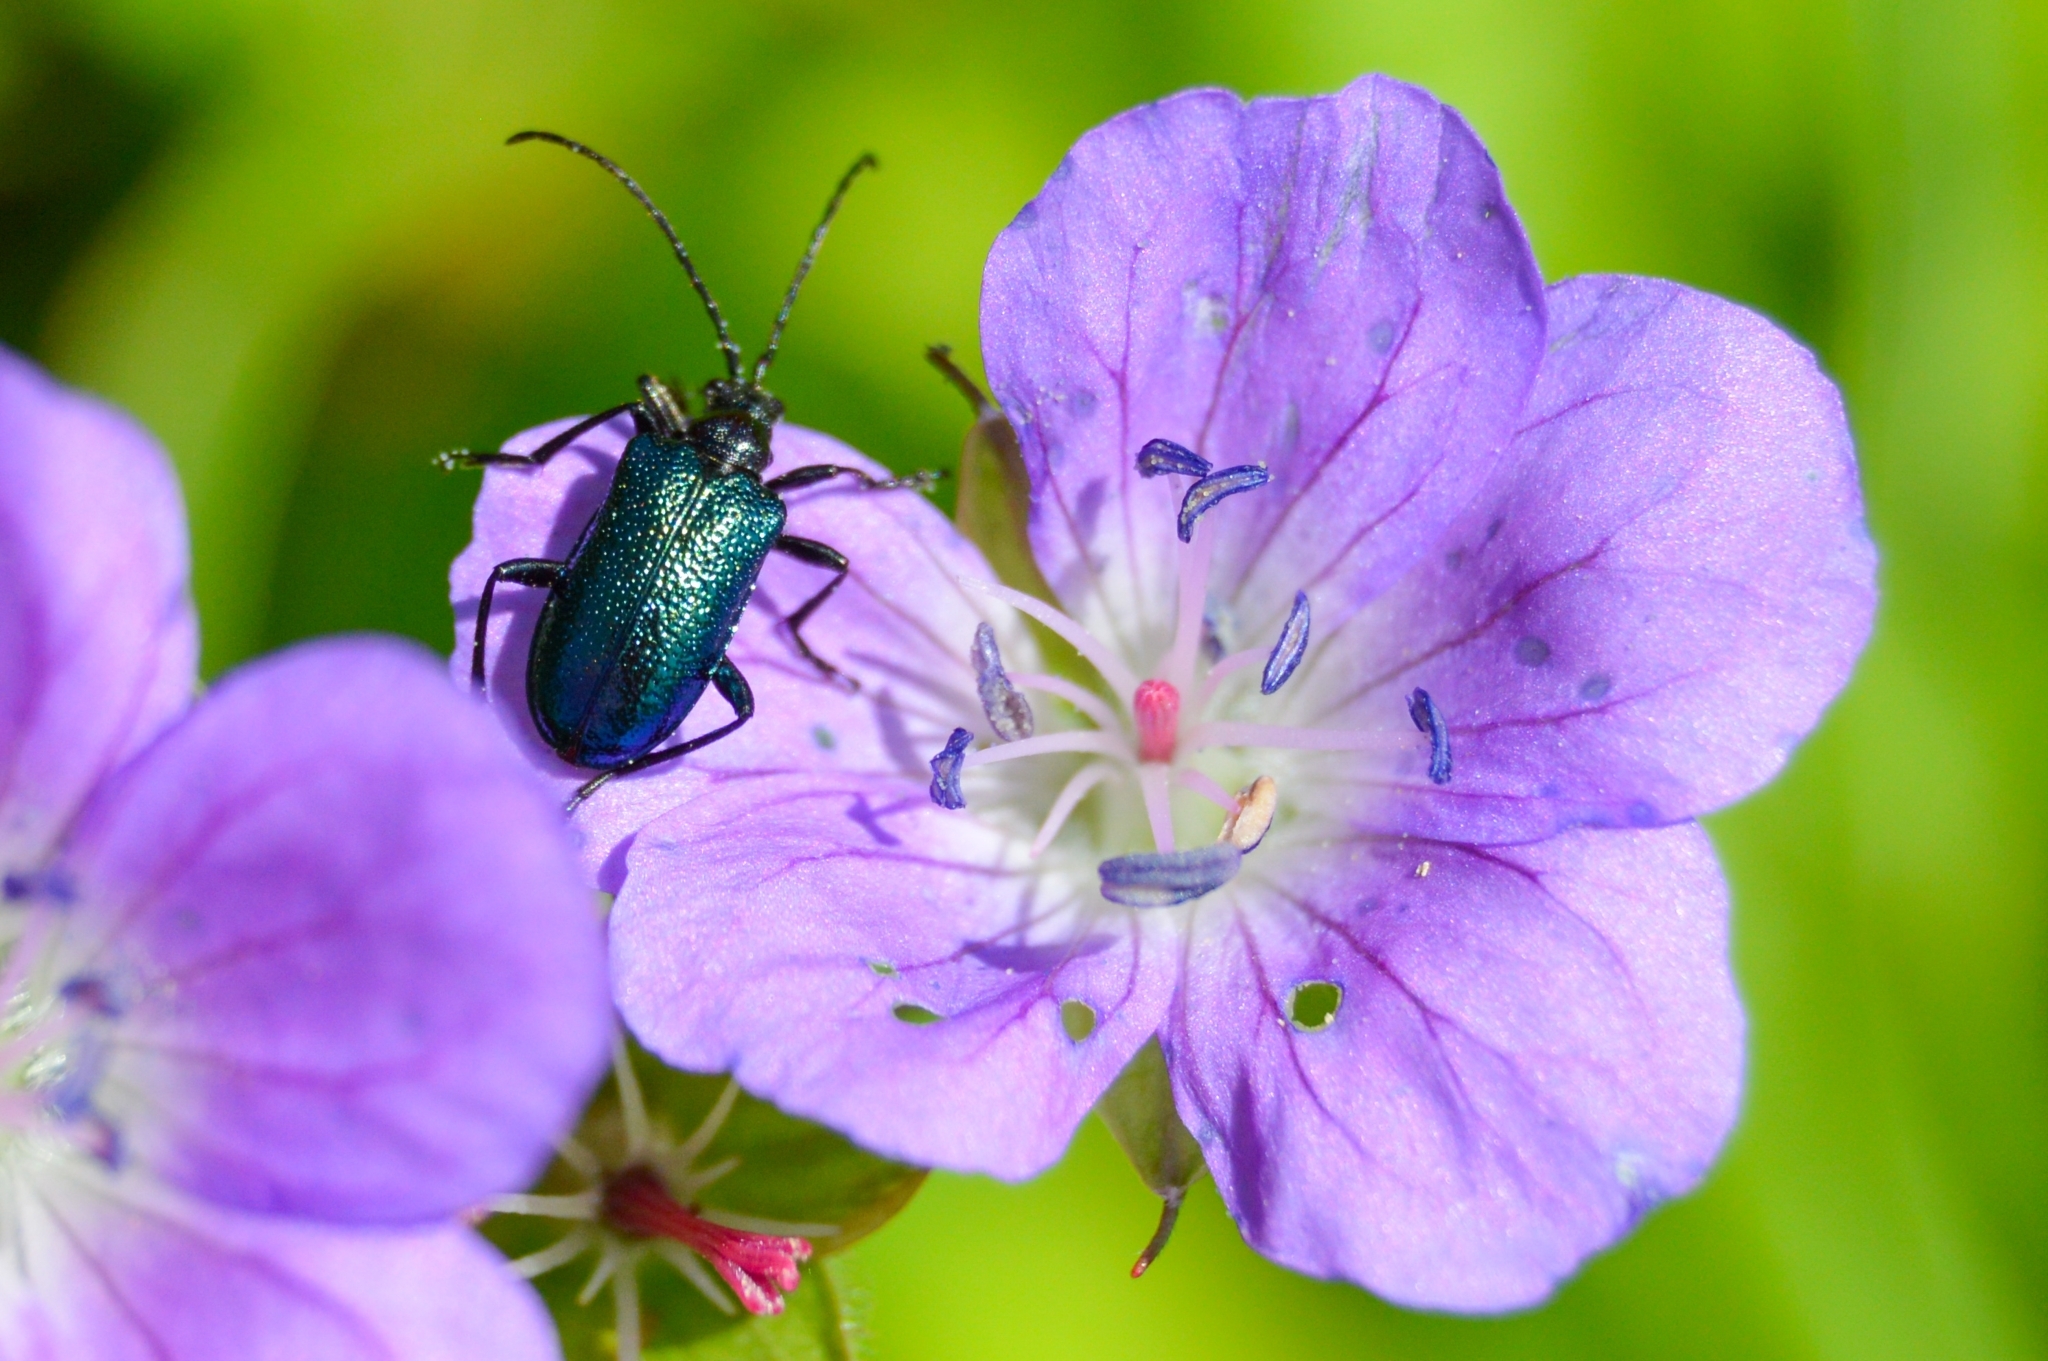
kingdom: Animalia
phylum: Arthropoda
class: Insecta
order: Coleoptera
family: Cerambycidae
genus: Gaurotes
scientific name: Gaurotes virginea
